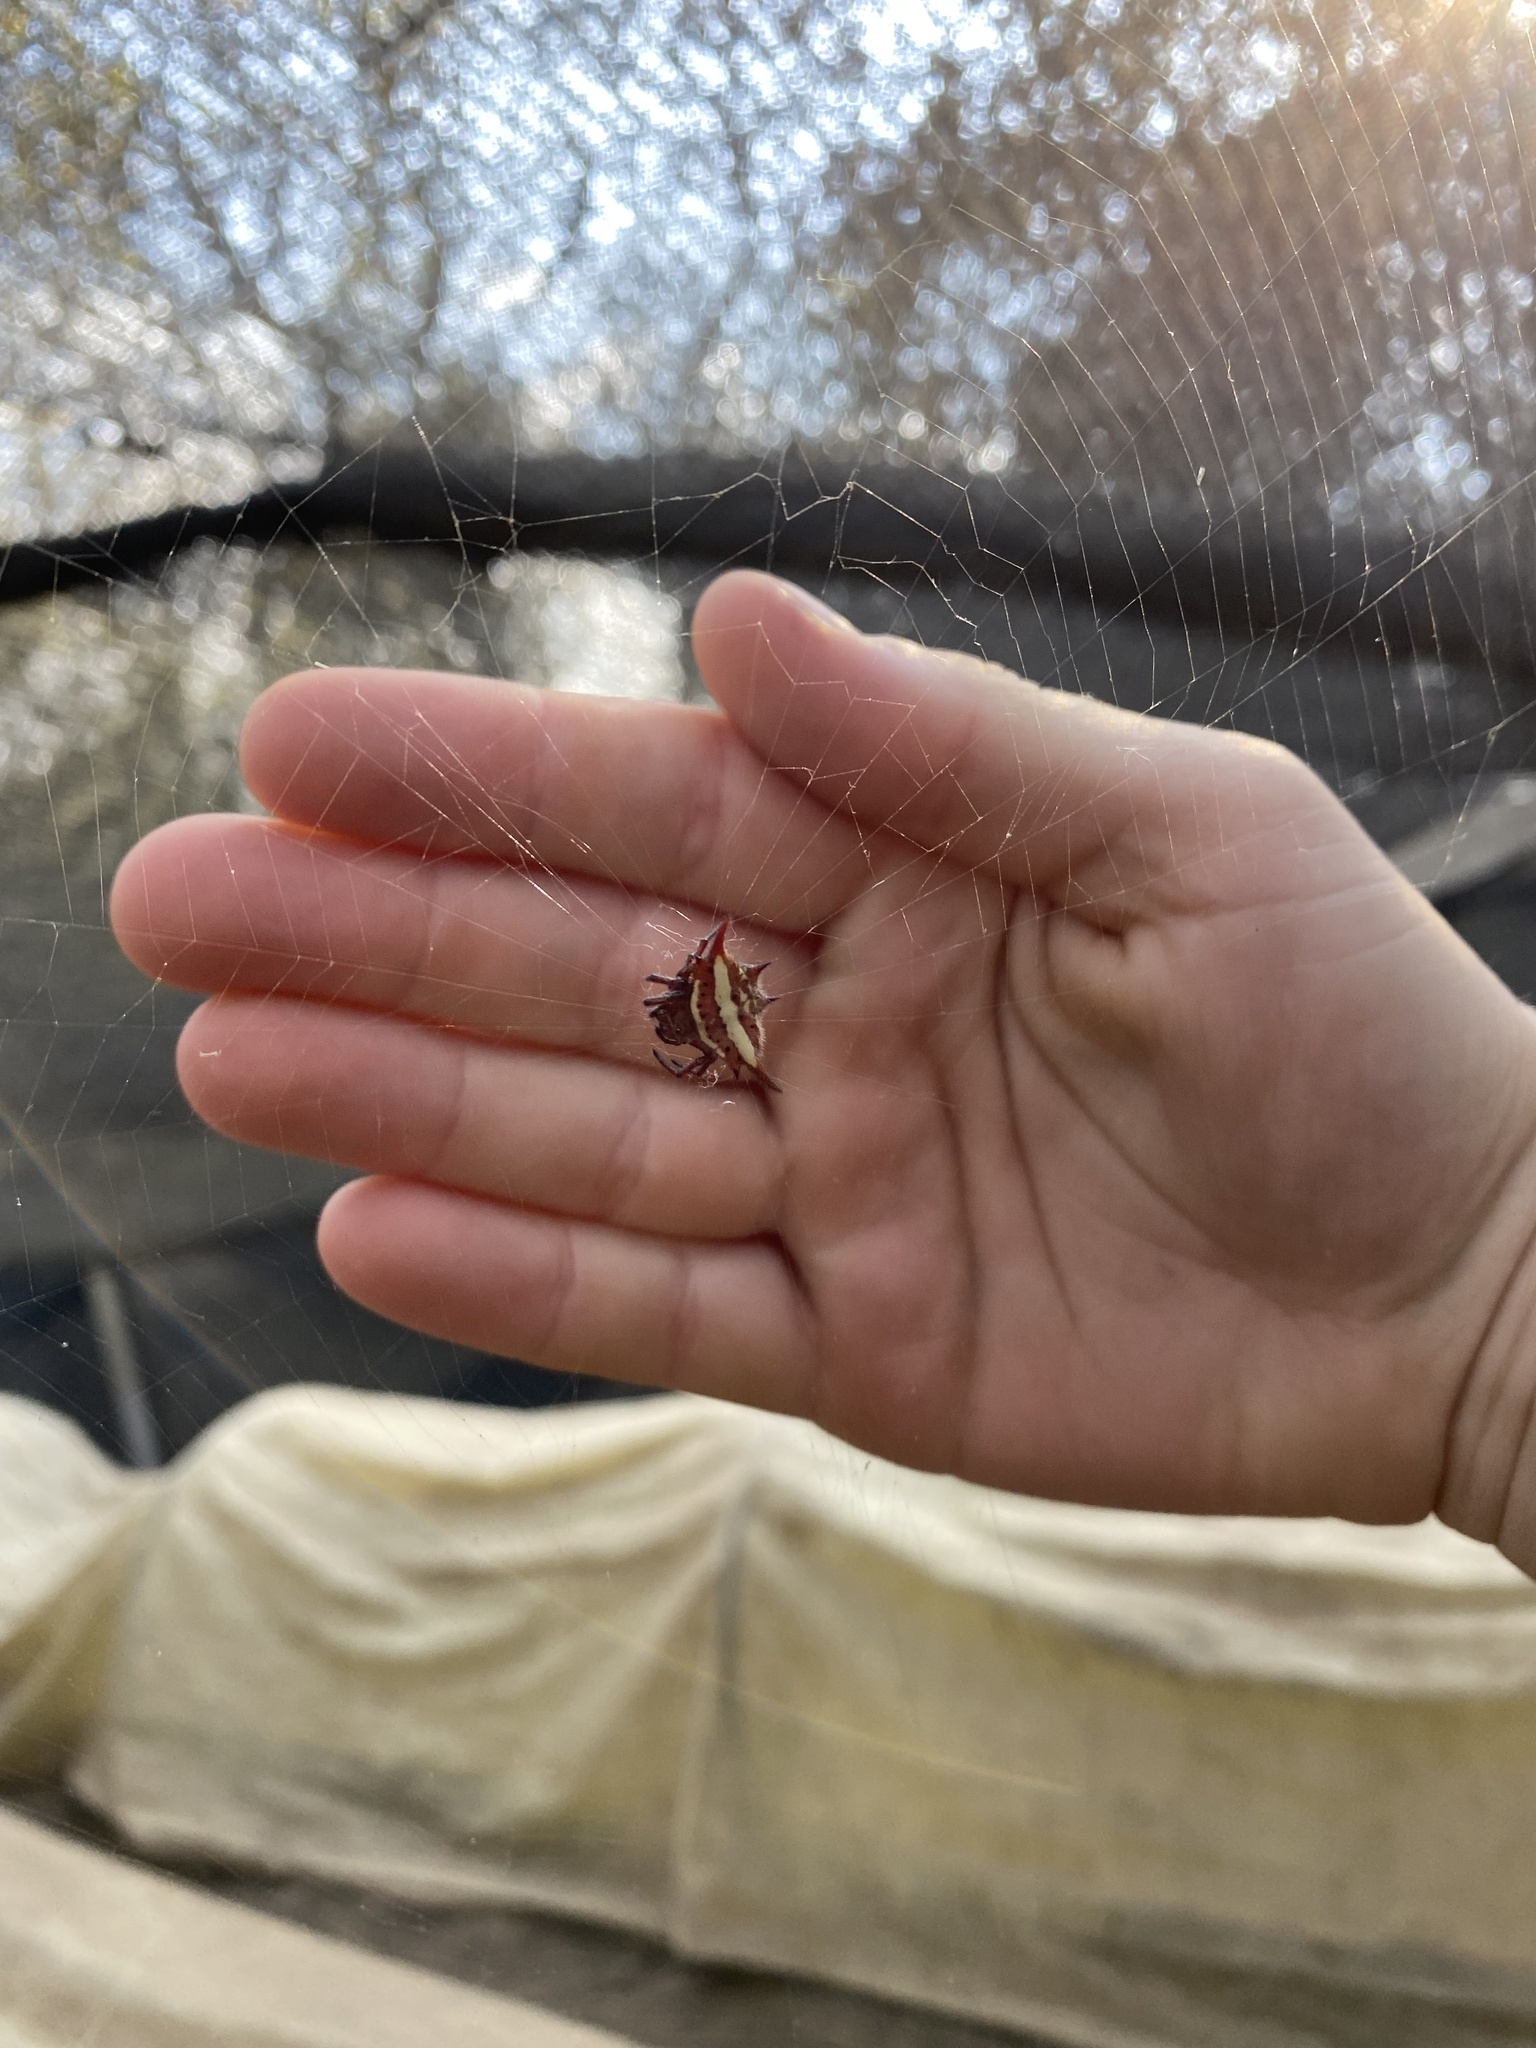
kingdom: Animalia
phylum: Arthropoda
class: Arachnida
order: Araneae
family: Araneidae
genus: Gasteracantha
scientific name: Gasteracantha versicolor
